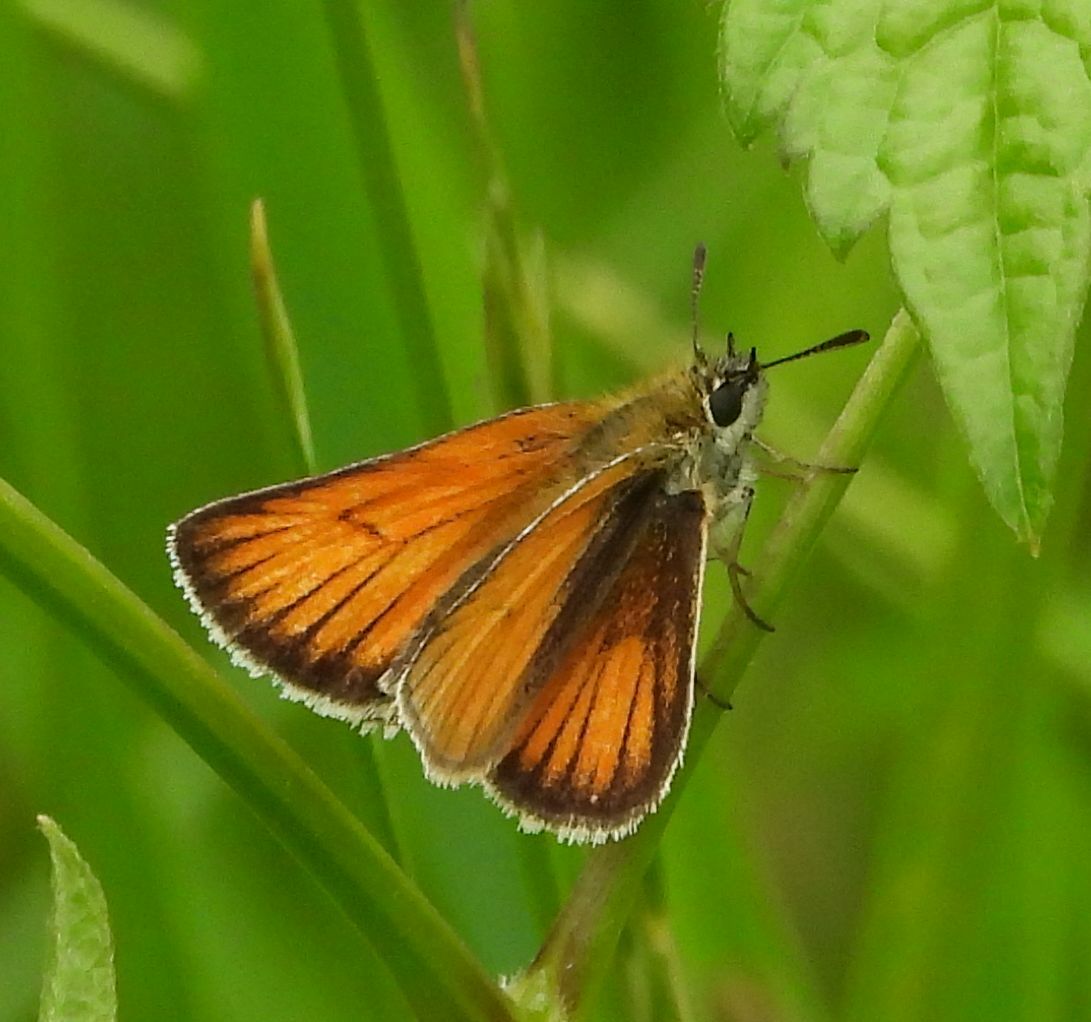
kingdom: Animalia
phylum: Arthropoda
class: Insecta
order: Lepidoptera
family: Hesperiidae
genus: Thymelicus
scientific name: Thymelicus lineola
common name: Essex skipper
